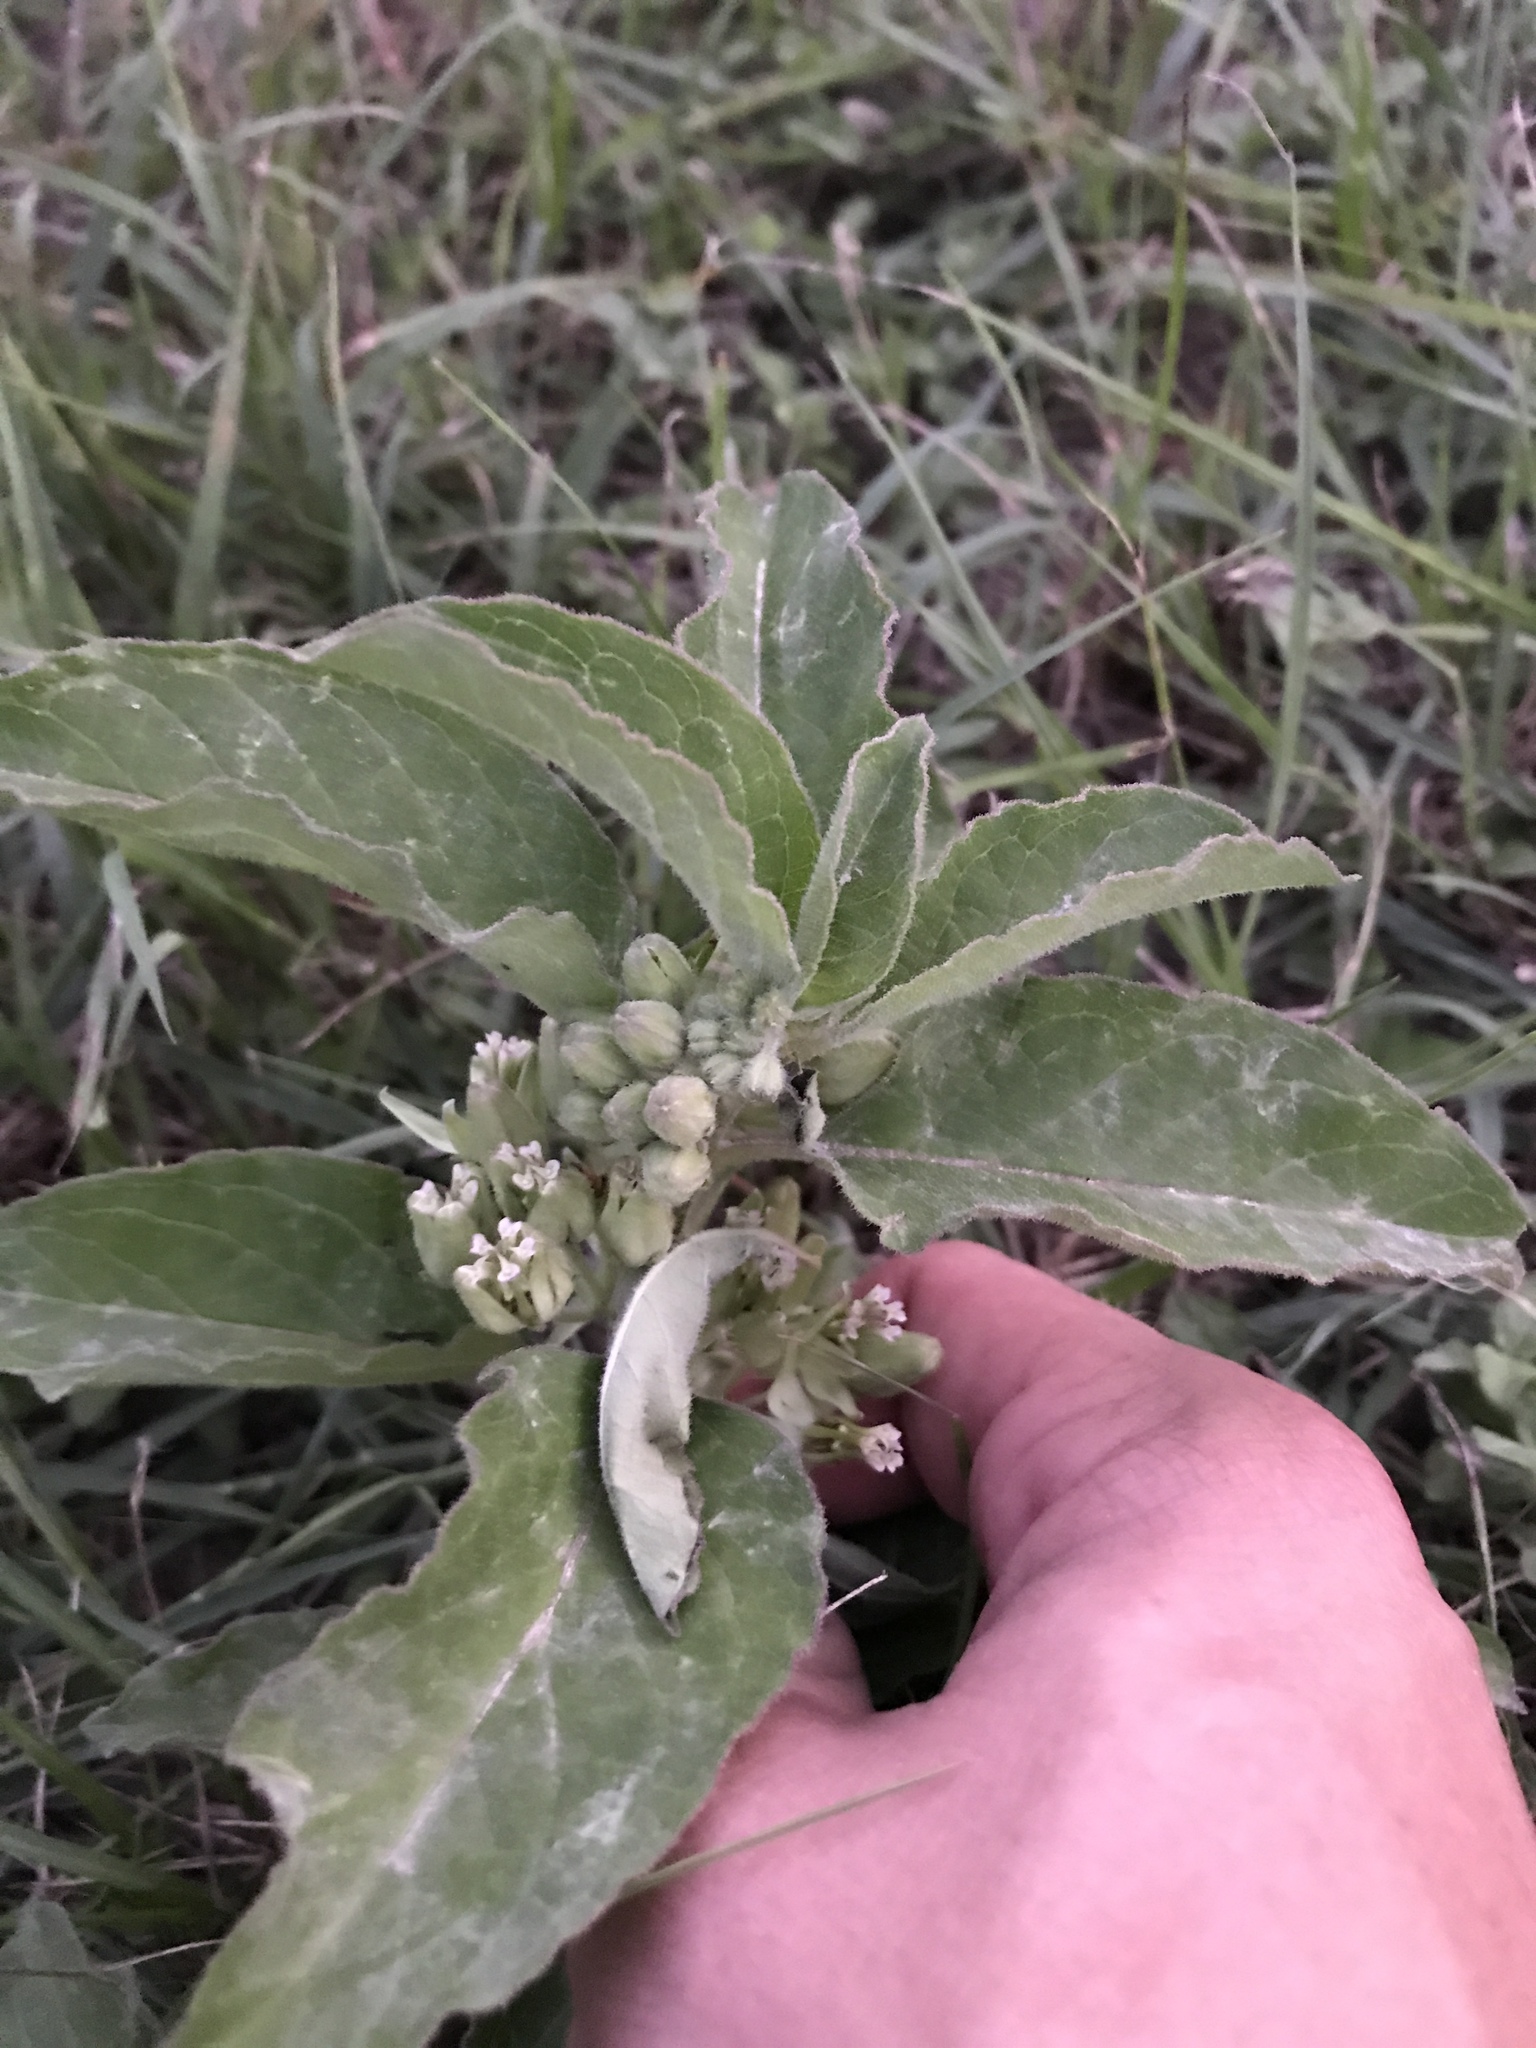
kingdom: Plantae
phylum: Tracheophyta
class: Magnoliopsida
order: Gentianales
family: Apocynaceae
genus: Asclepias
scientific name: Asclepias oenotheroides
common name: Zizotes milkweed
